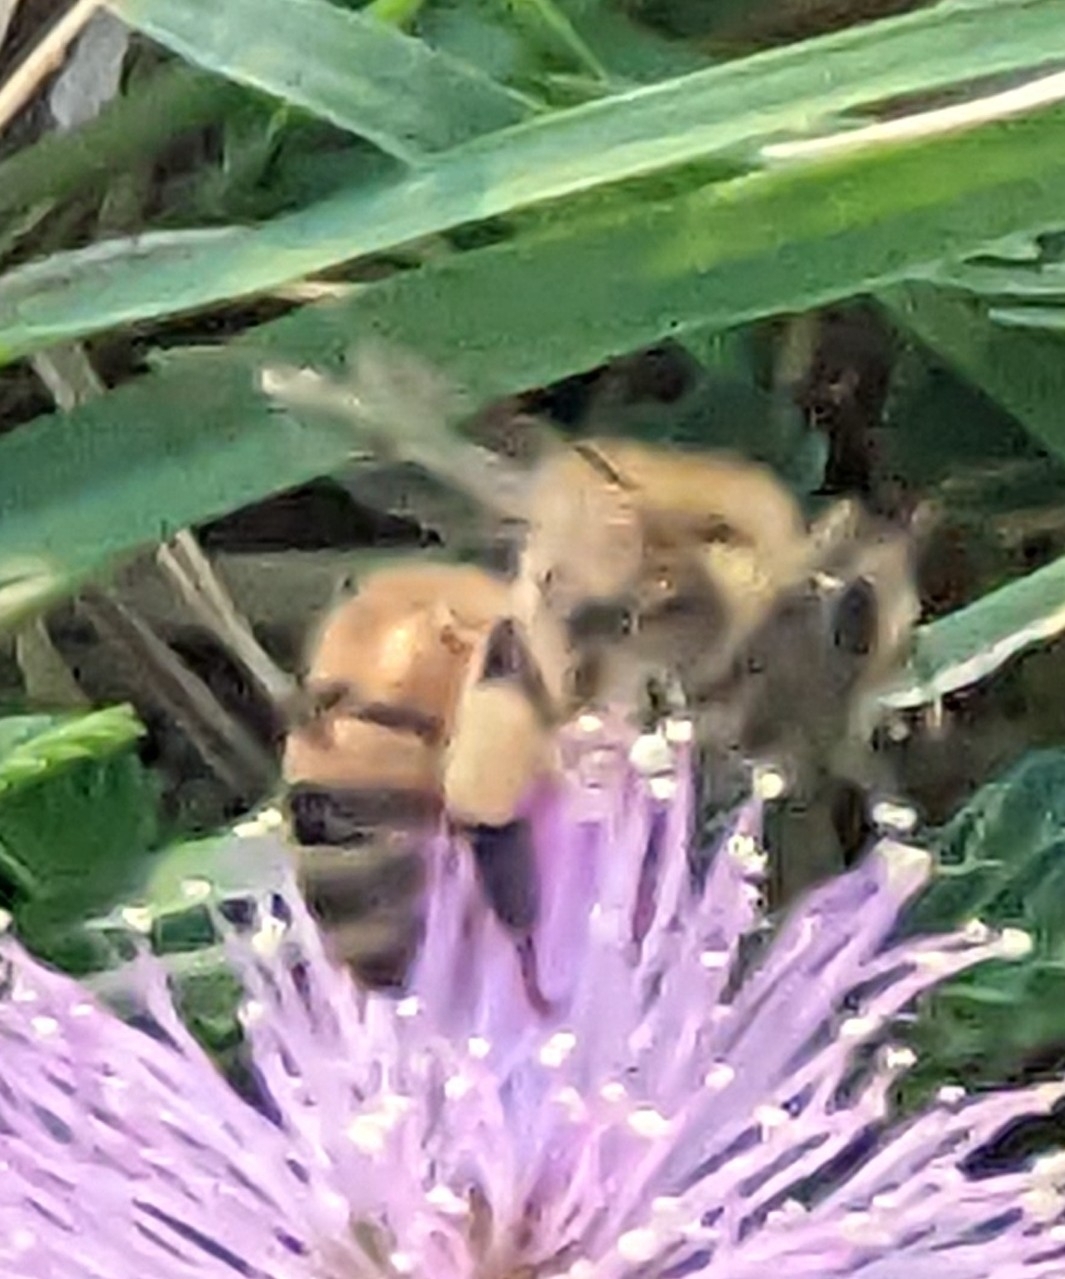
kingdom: Animalia
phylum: Arthropoda
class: Insecta
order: Hymenoptera
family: Apidae
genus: Apis
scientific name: Apis mellifera
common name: Honey bee
